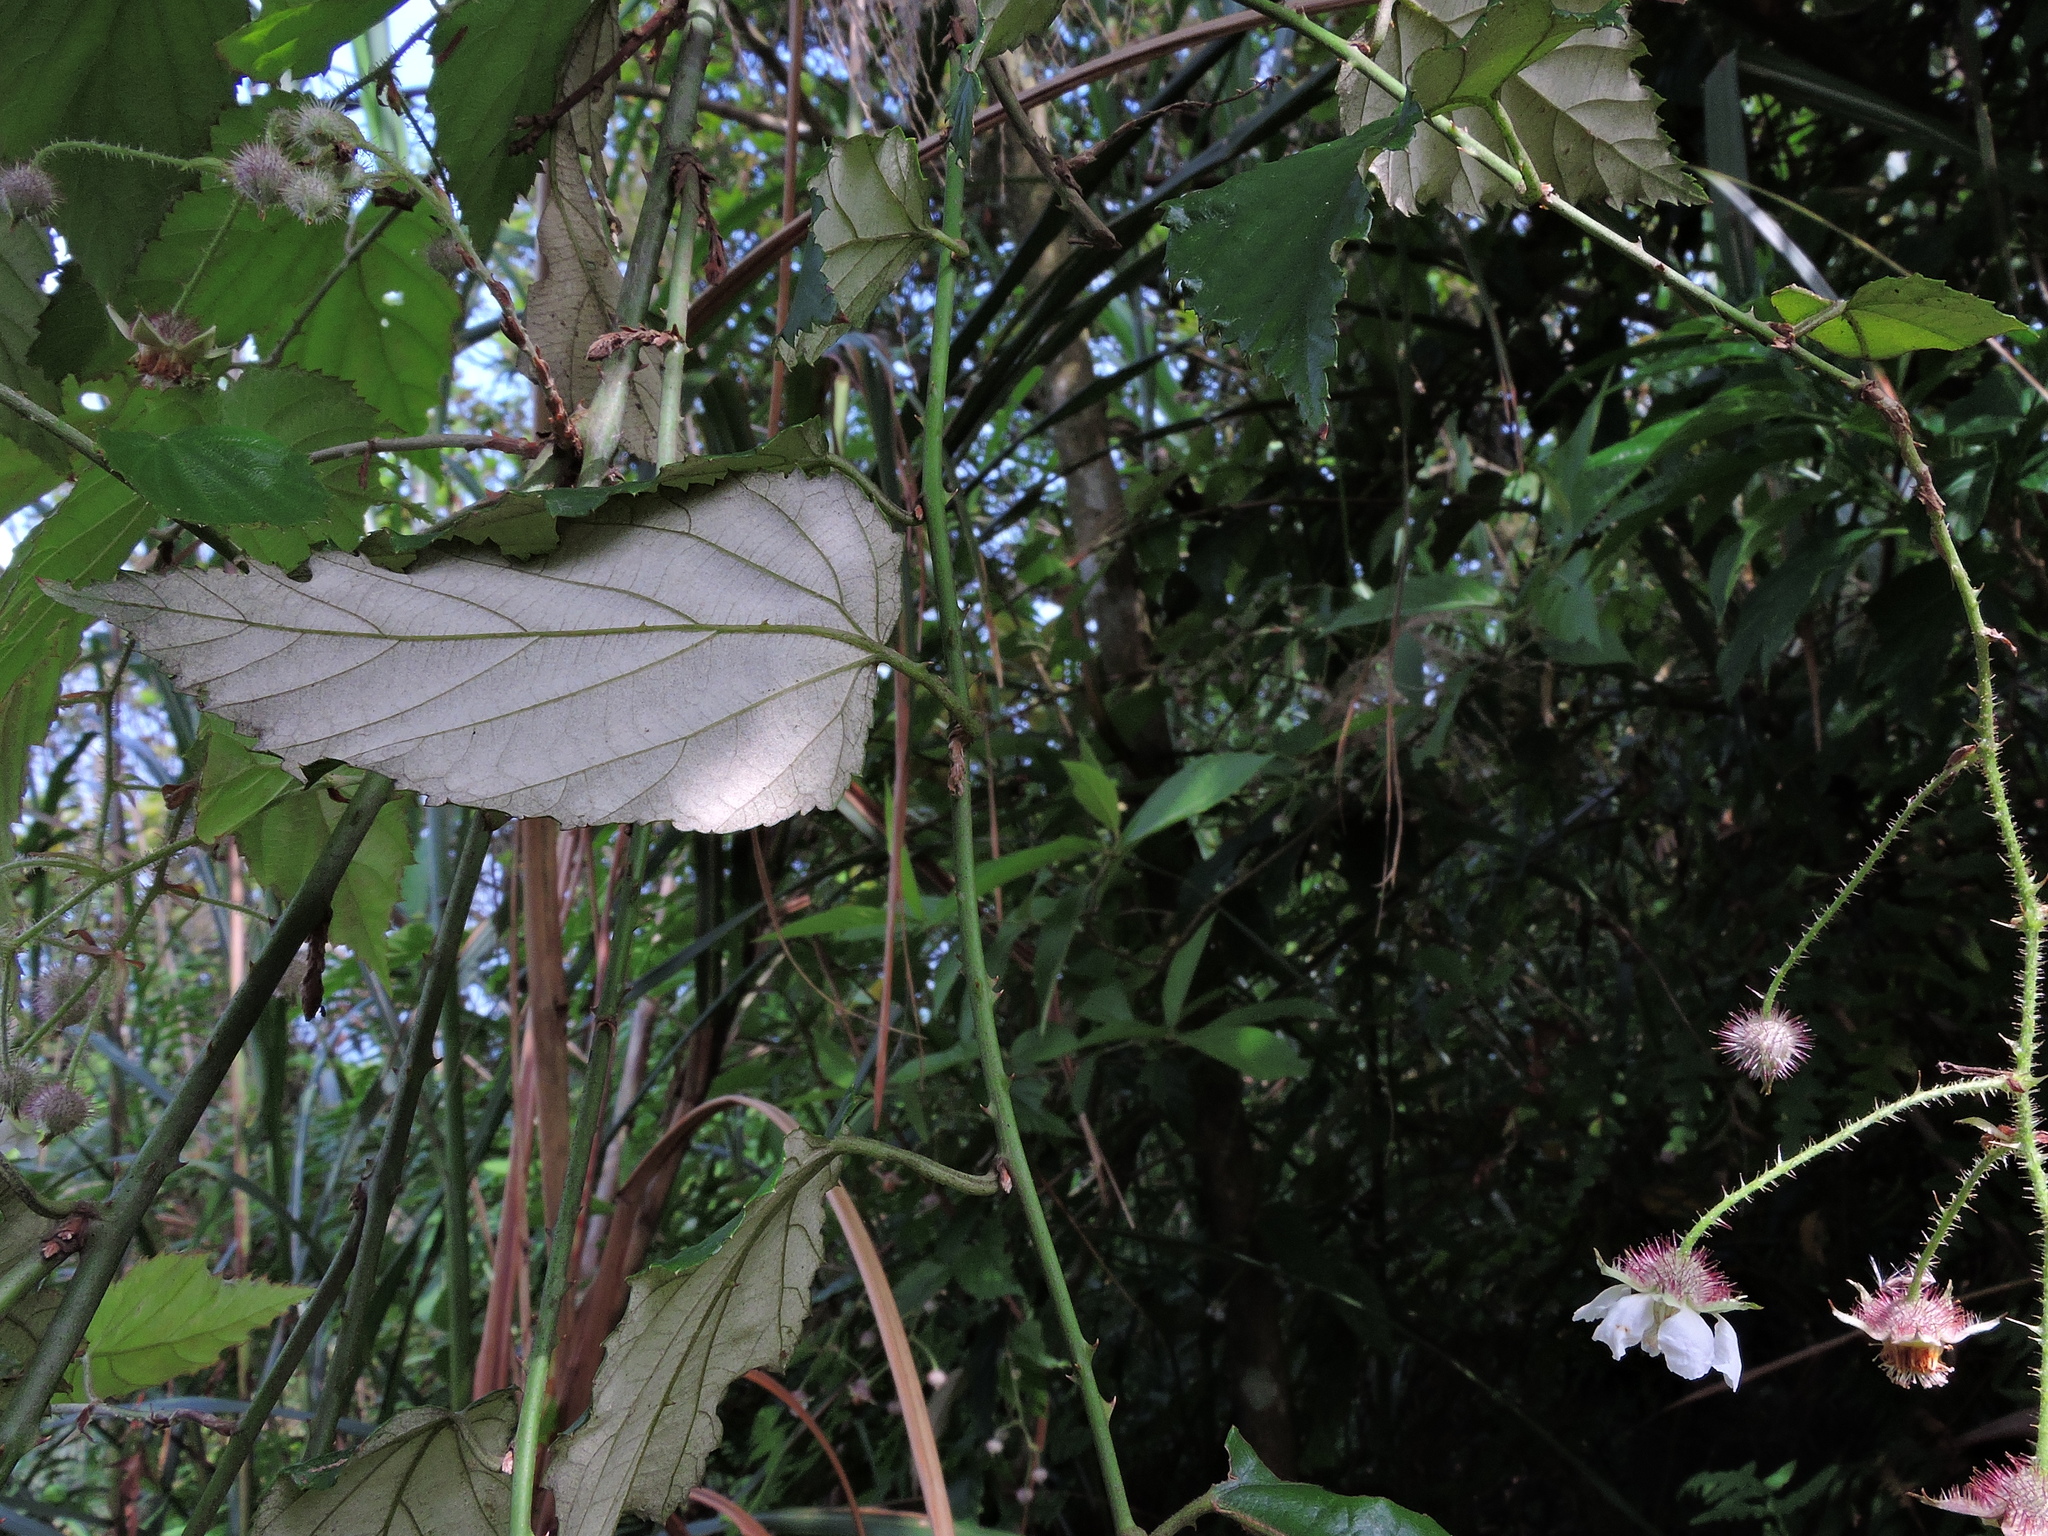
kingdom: Plantae
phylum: Tracheophyta
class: Magnoliopsida
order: Rosales
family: Rosaceae
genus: Rubus
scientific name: Rubus swinhoei
